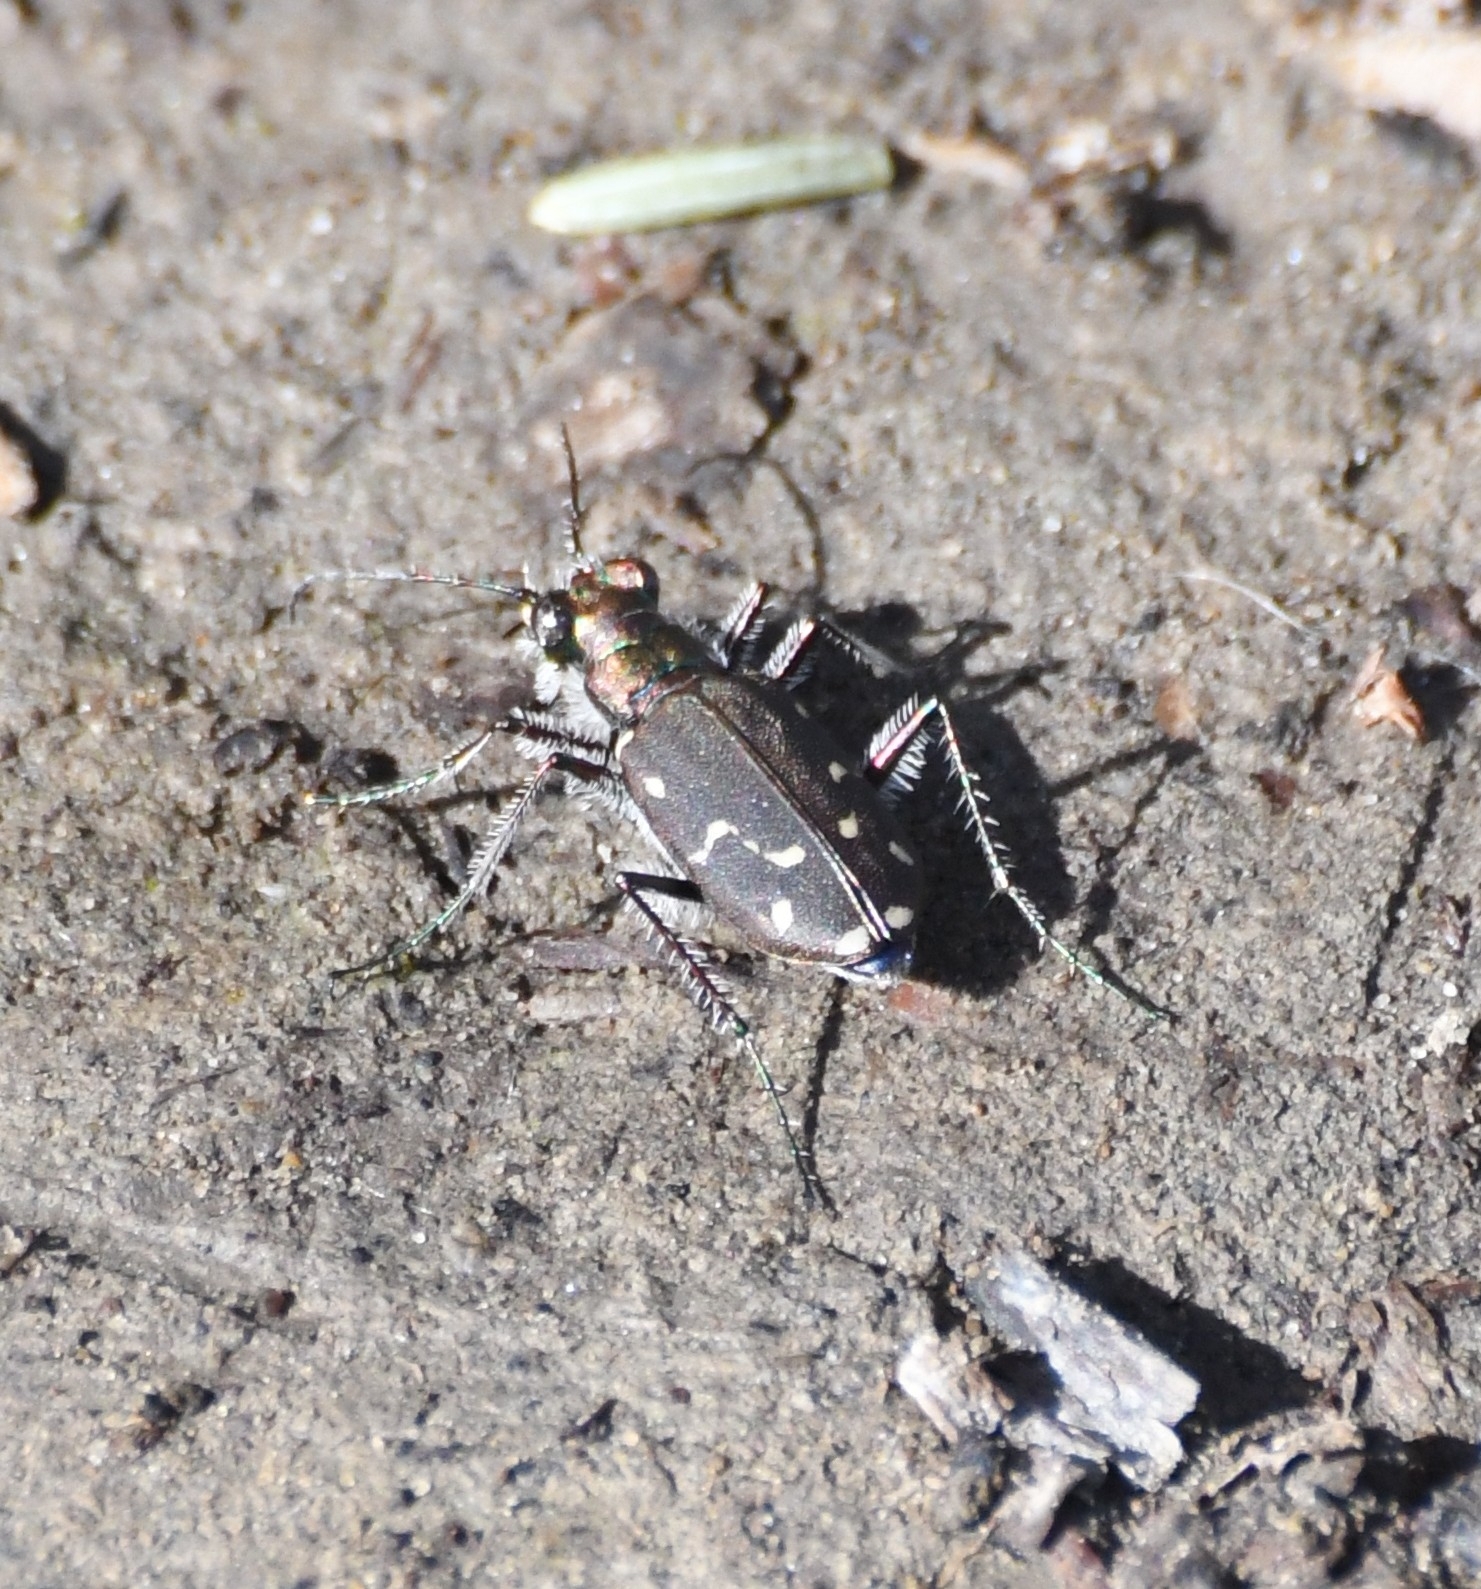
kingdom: Animalia
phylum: Arthropoda
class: Insecta
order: Coleoptera
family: Carabidae
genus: Cicindela
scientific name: Cicindela oregona
